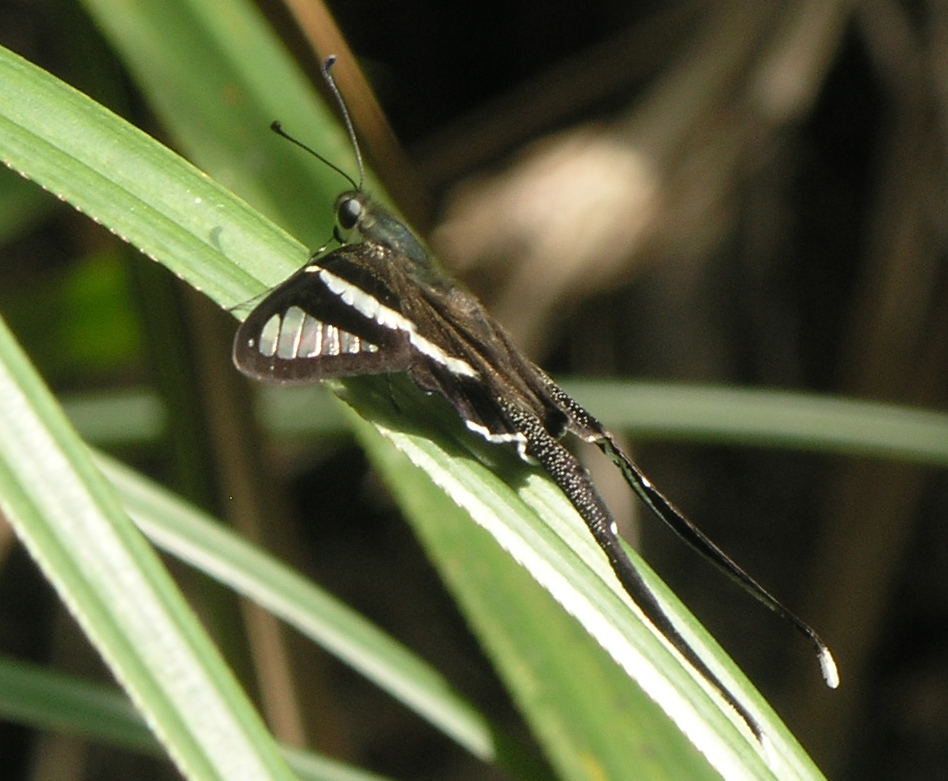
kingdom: Animalia
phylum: Arthropoda
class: Insecta
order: Lepidoptera
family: Papilionidae
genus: Lamproptera
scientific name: Lamproptera curius
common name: White dragontail
